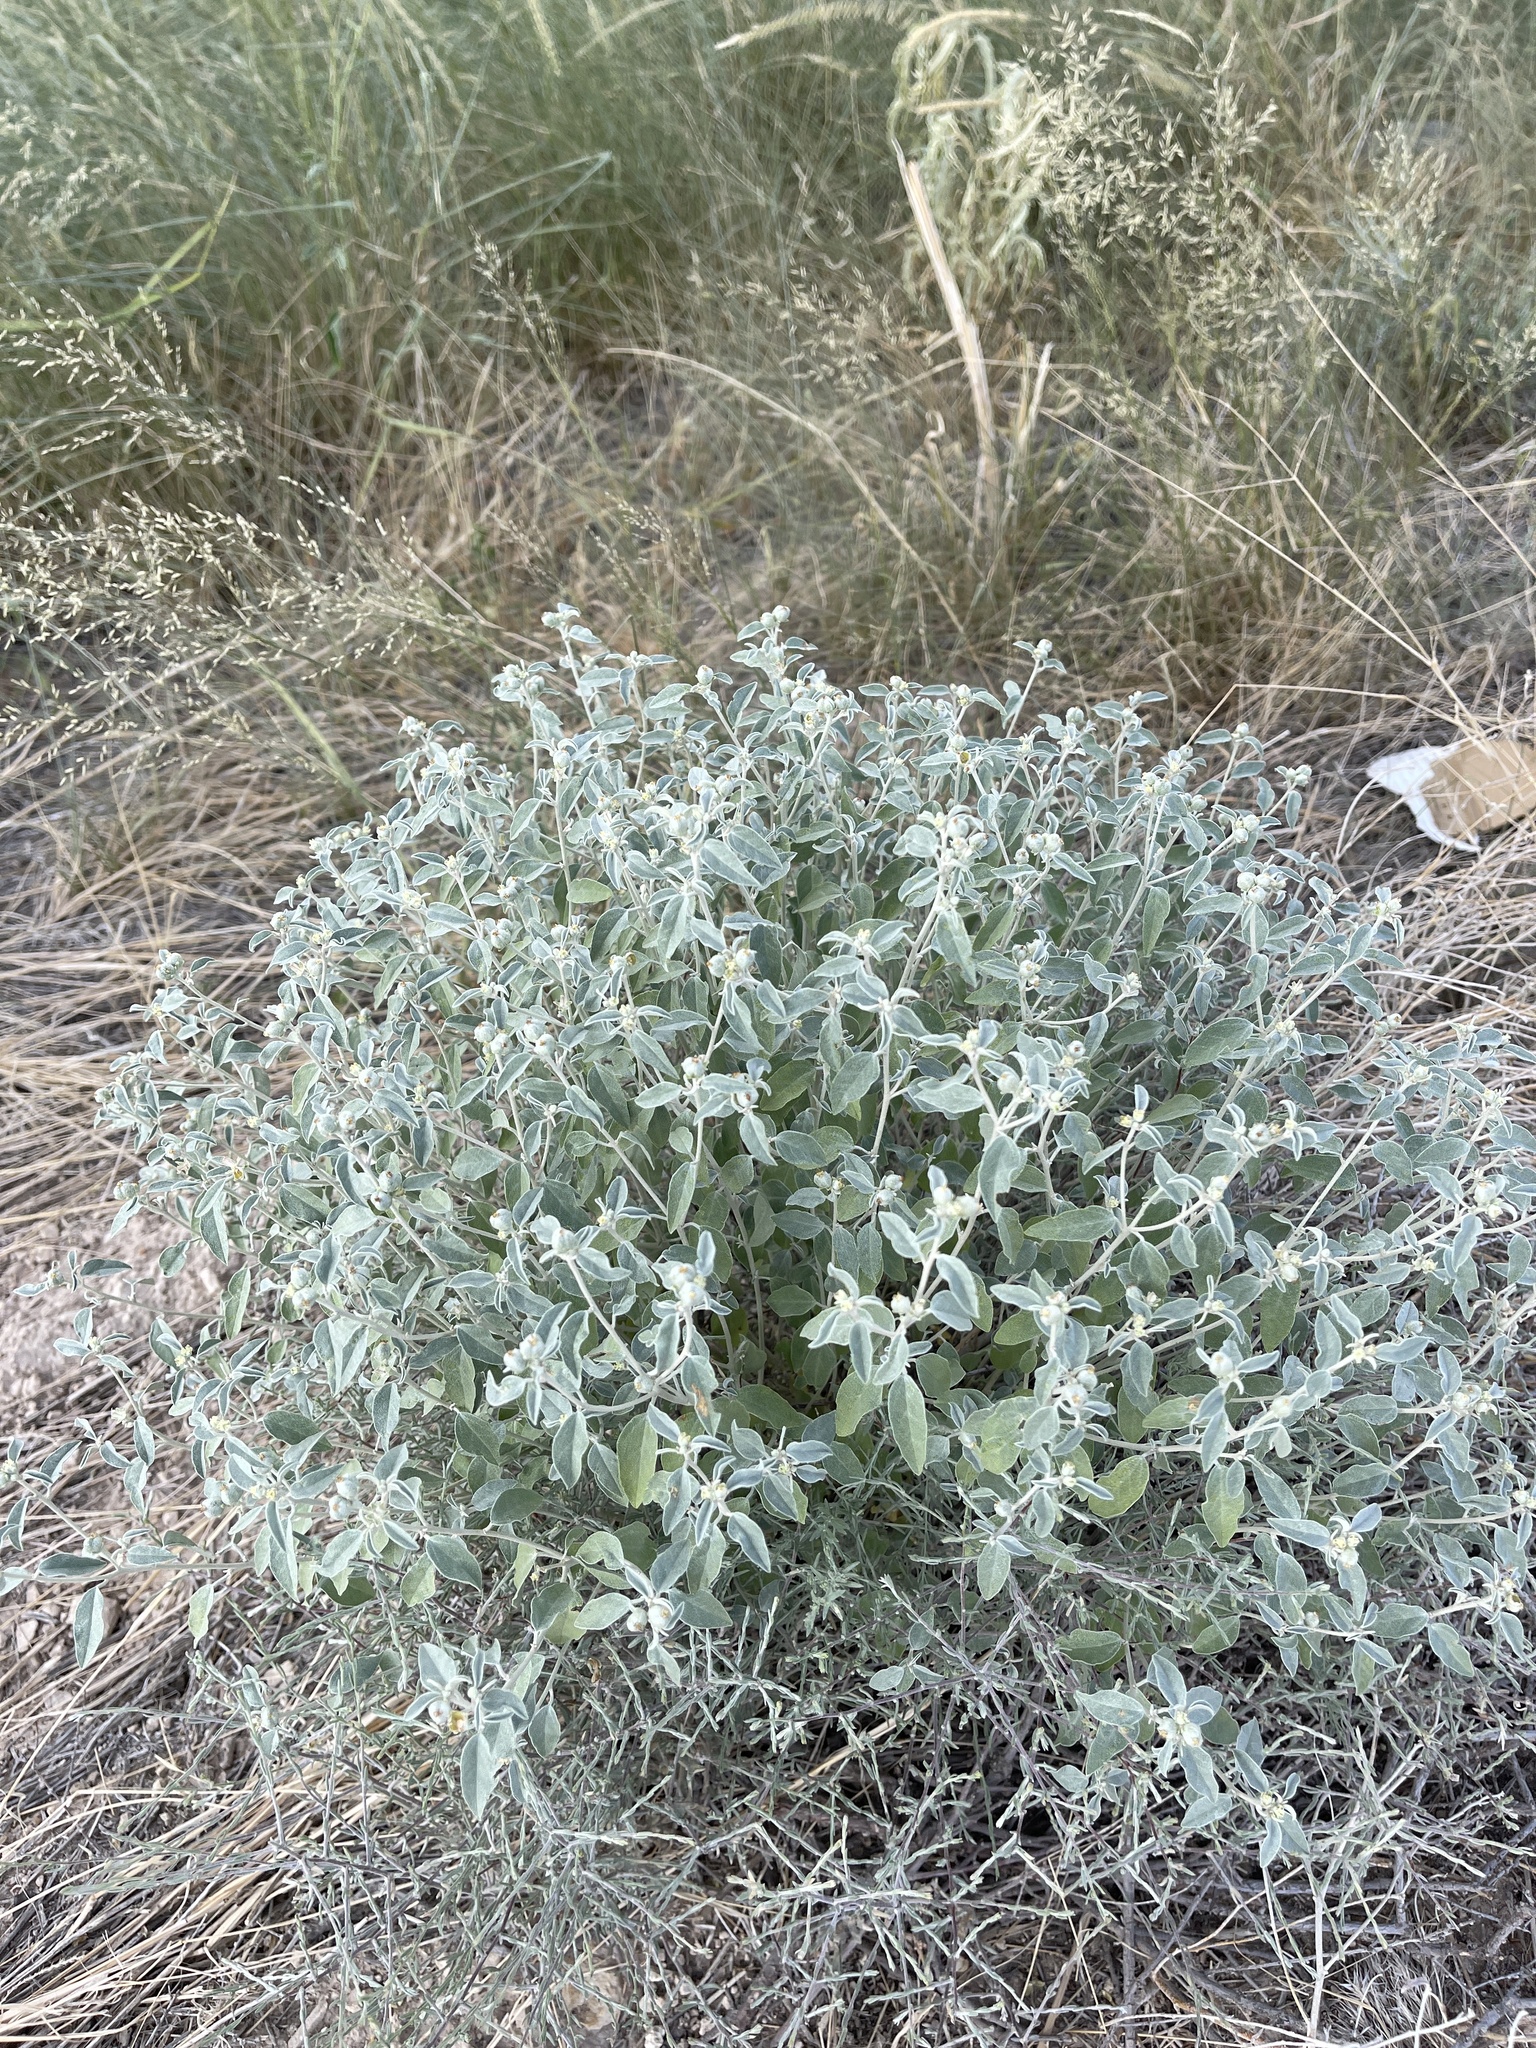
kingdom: Plantae
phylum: Tracheophyta
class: Magnoliopsida
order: Malpighiales
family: Euphorbiaceae
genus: Croton
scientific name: Croton dioicus
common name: Grassland croton
